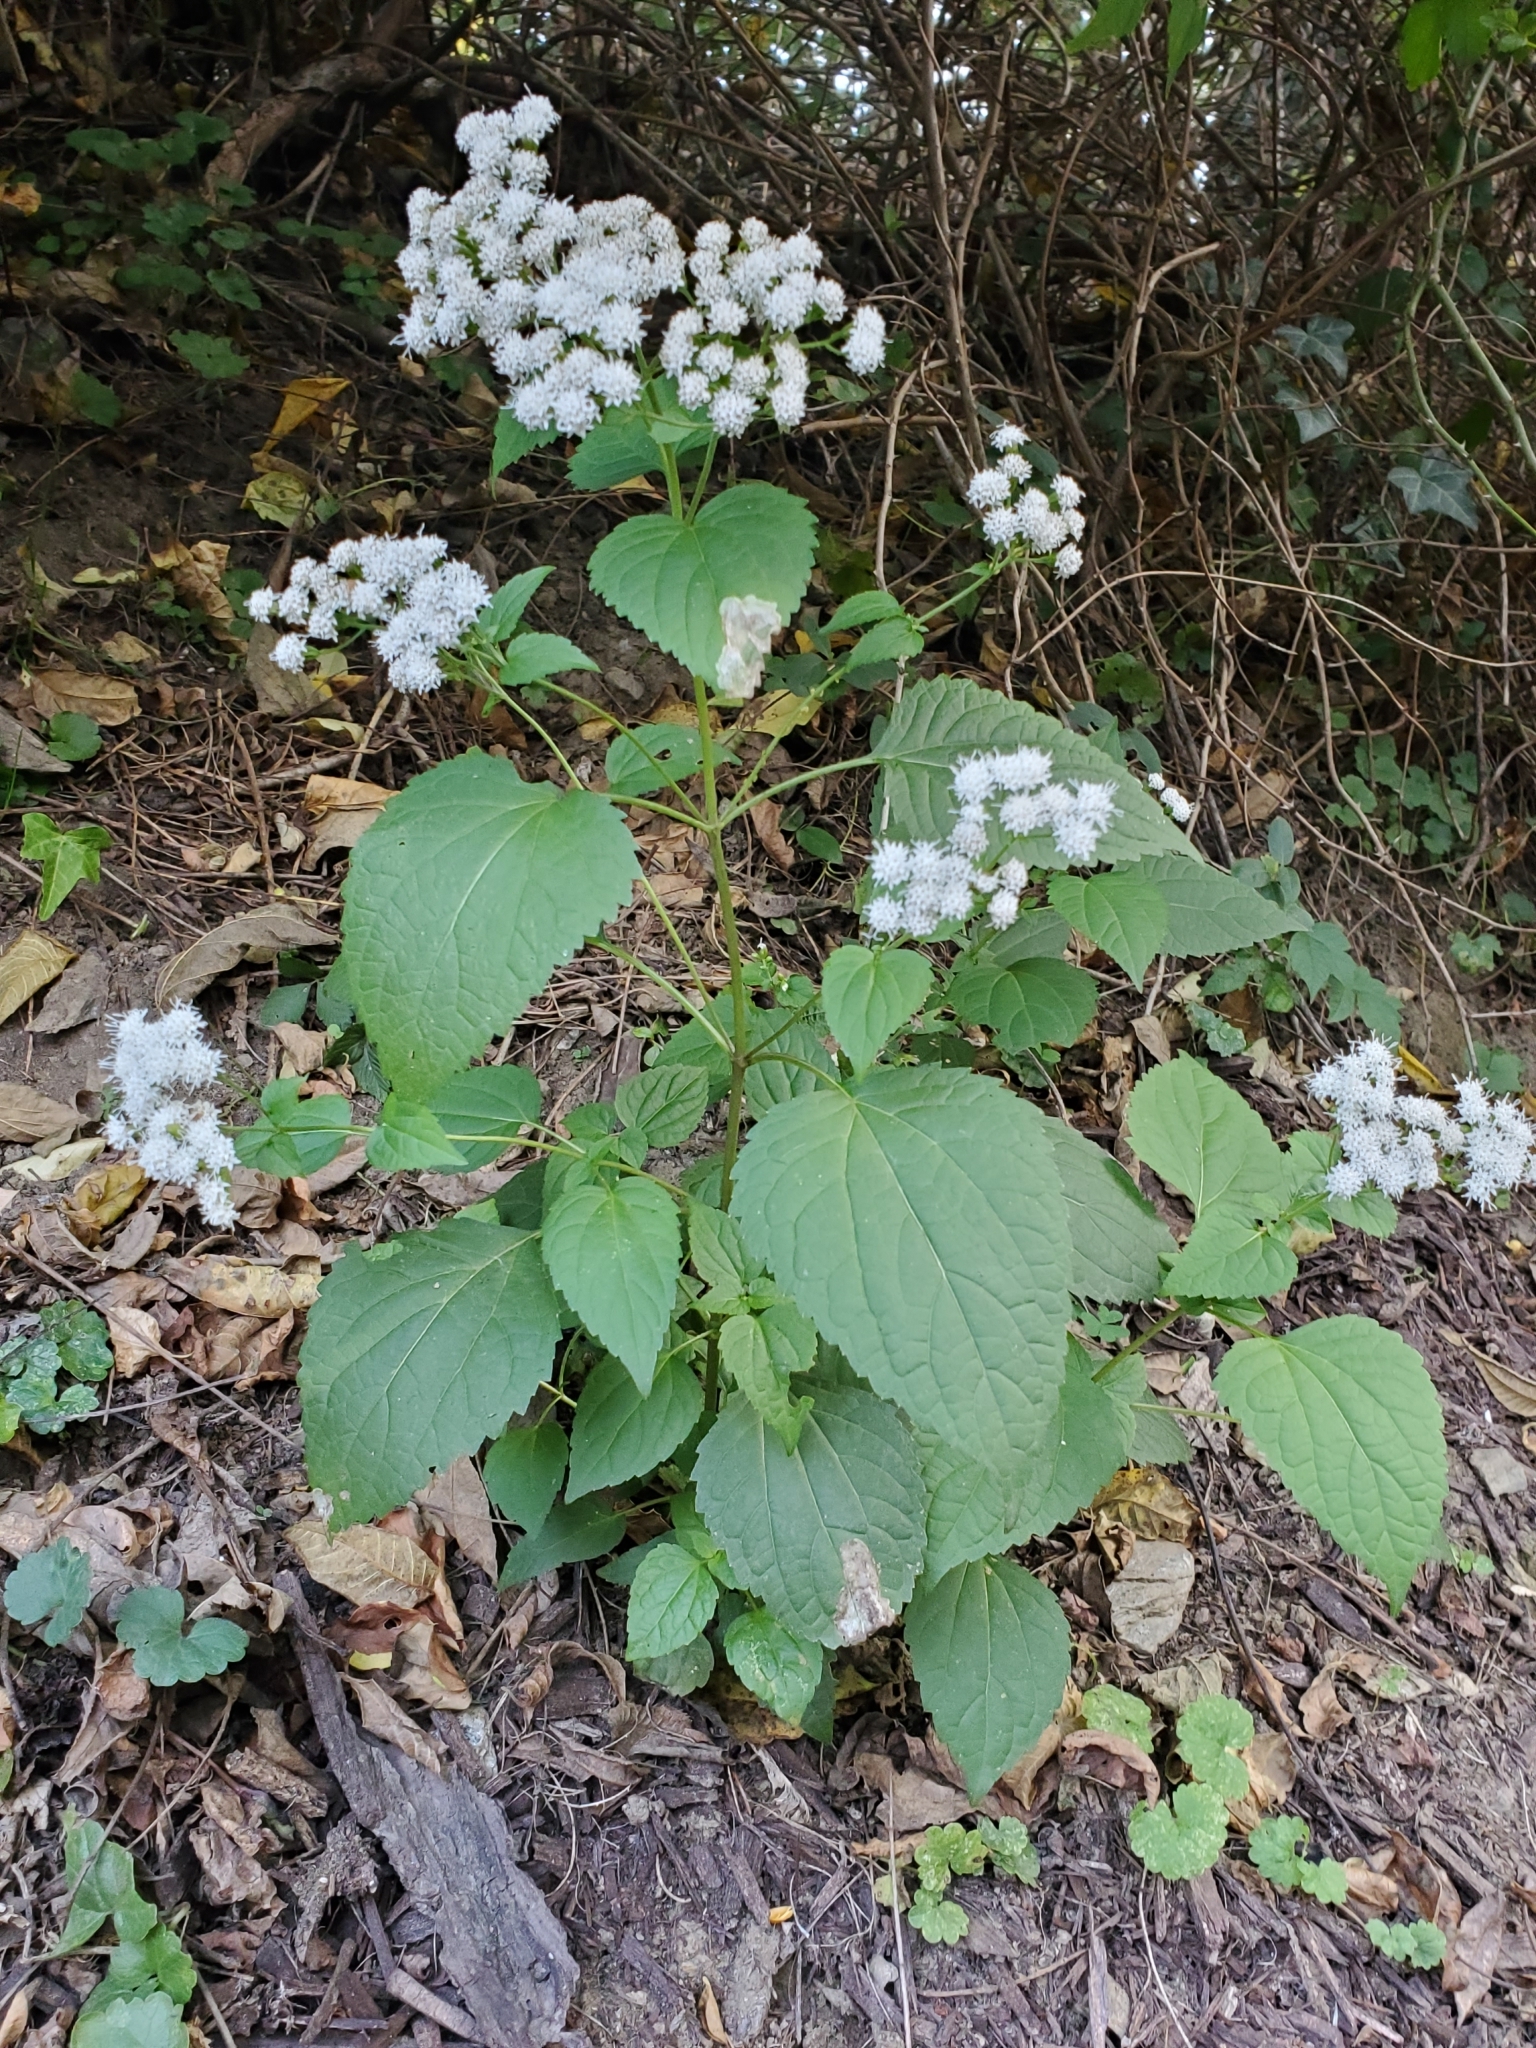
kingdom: Plantae
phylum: Tracheophyta
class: Magnoliopsida
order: Asterales
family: Asteraceae
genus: Ageratina
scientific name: Ageratina altissima
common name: White snakeroot
